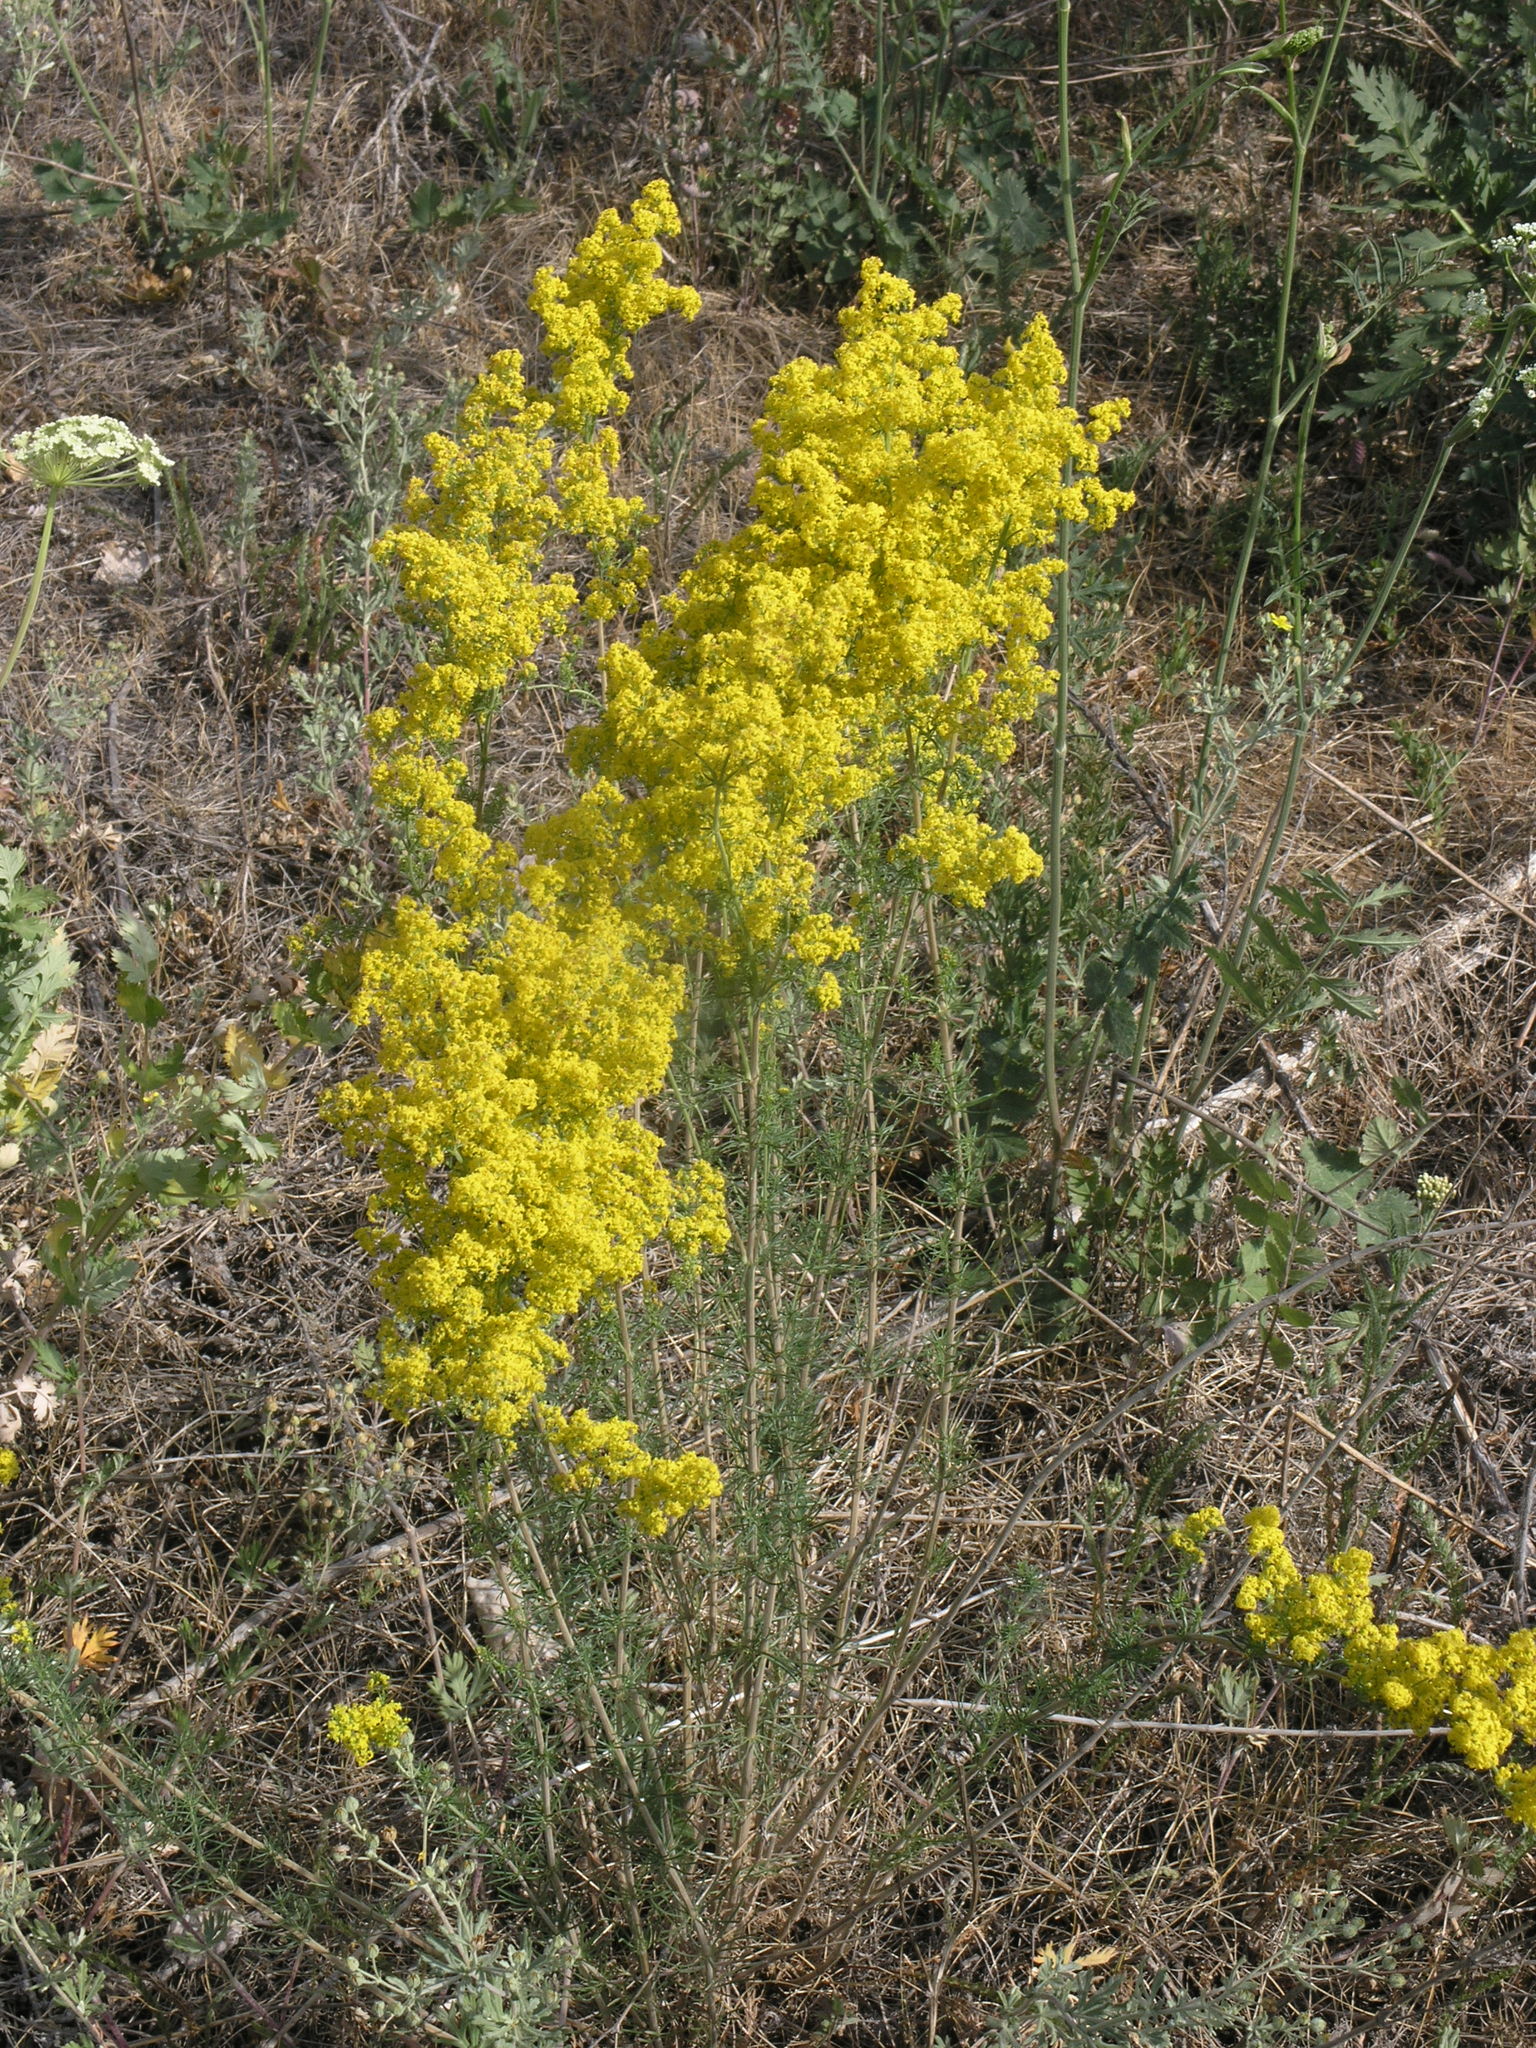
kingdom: Plantae
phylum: Tracheophyta
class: Magnoliopsida
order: Gentianales
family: Rubiaceae
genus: Galium
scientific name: Galium verum
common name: Lady's bedstraw
